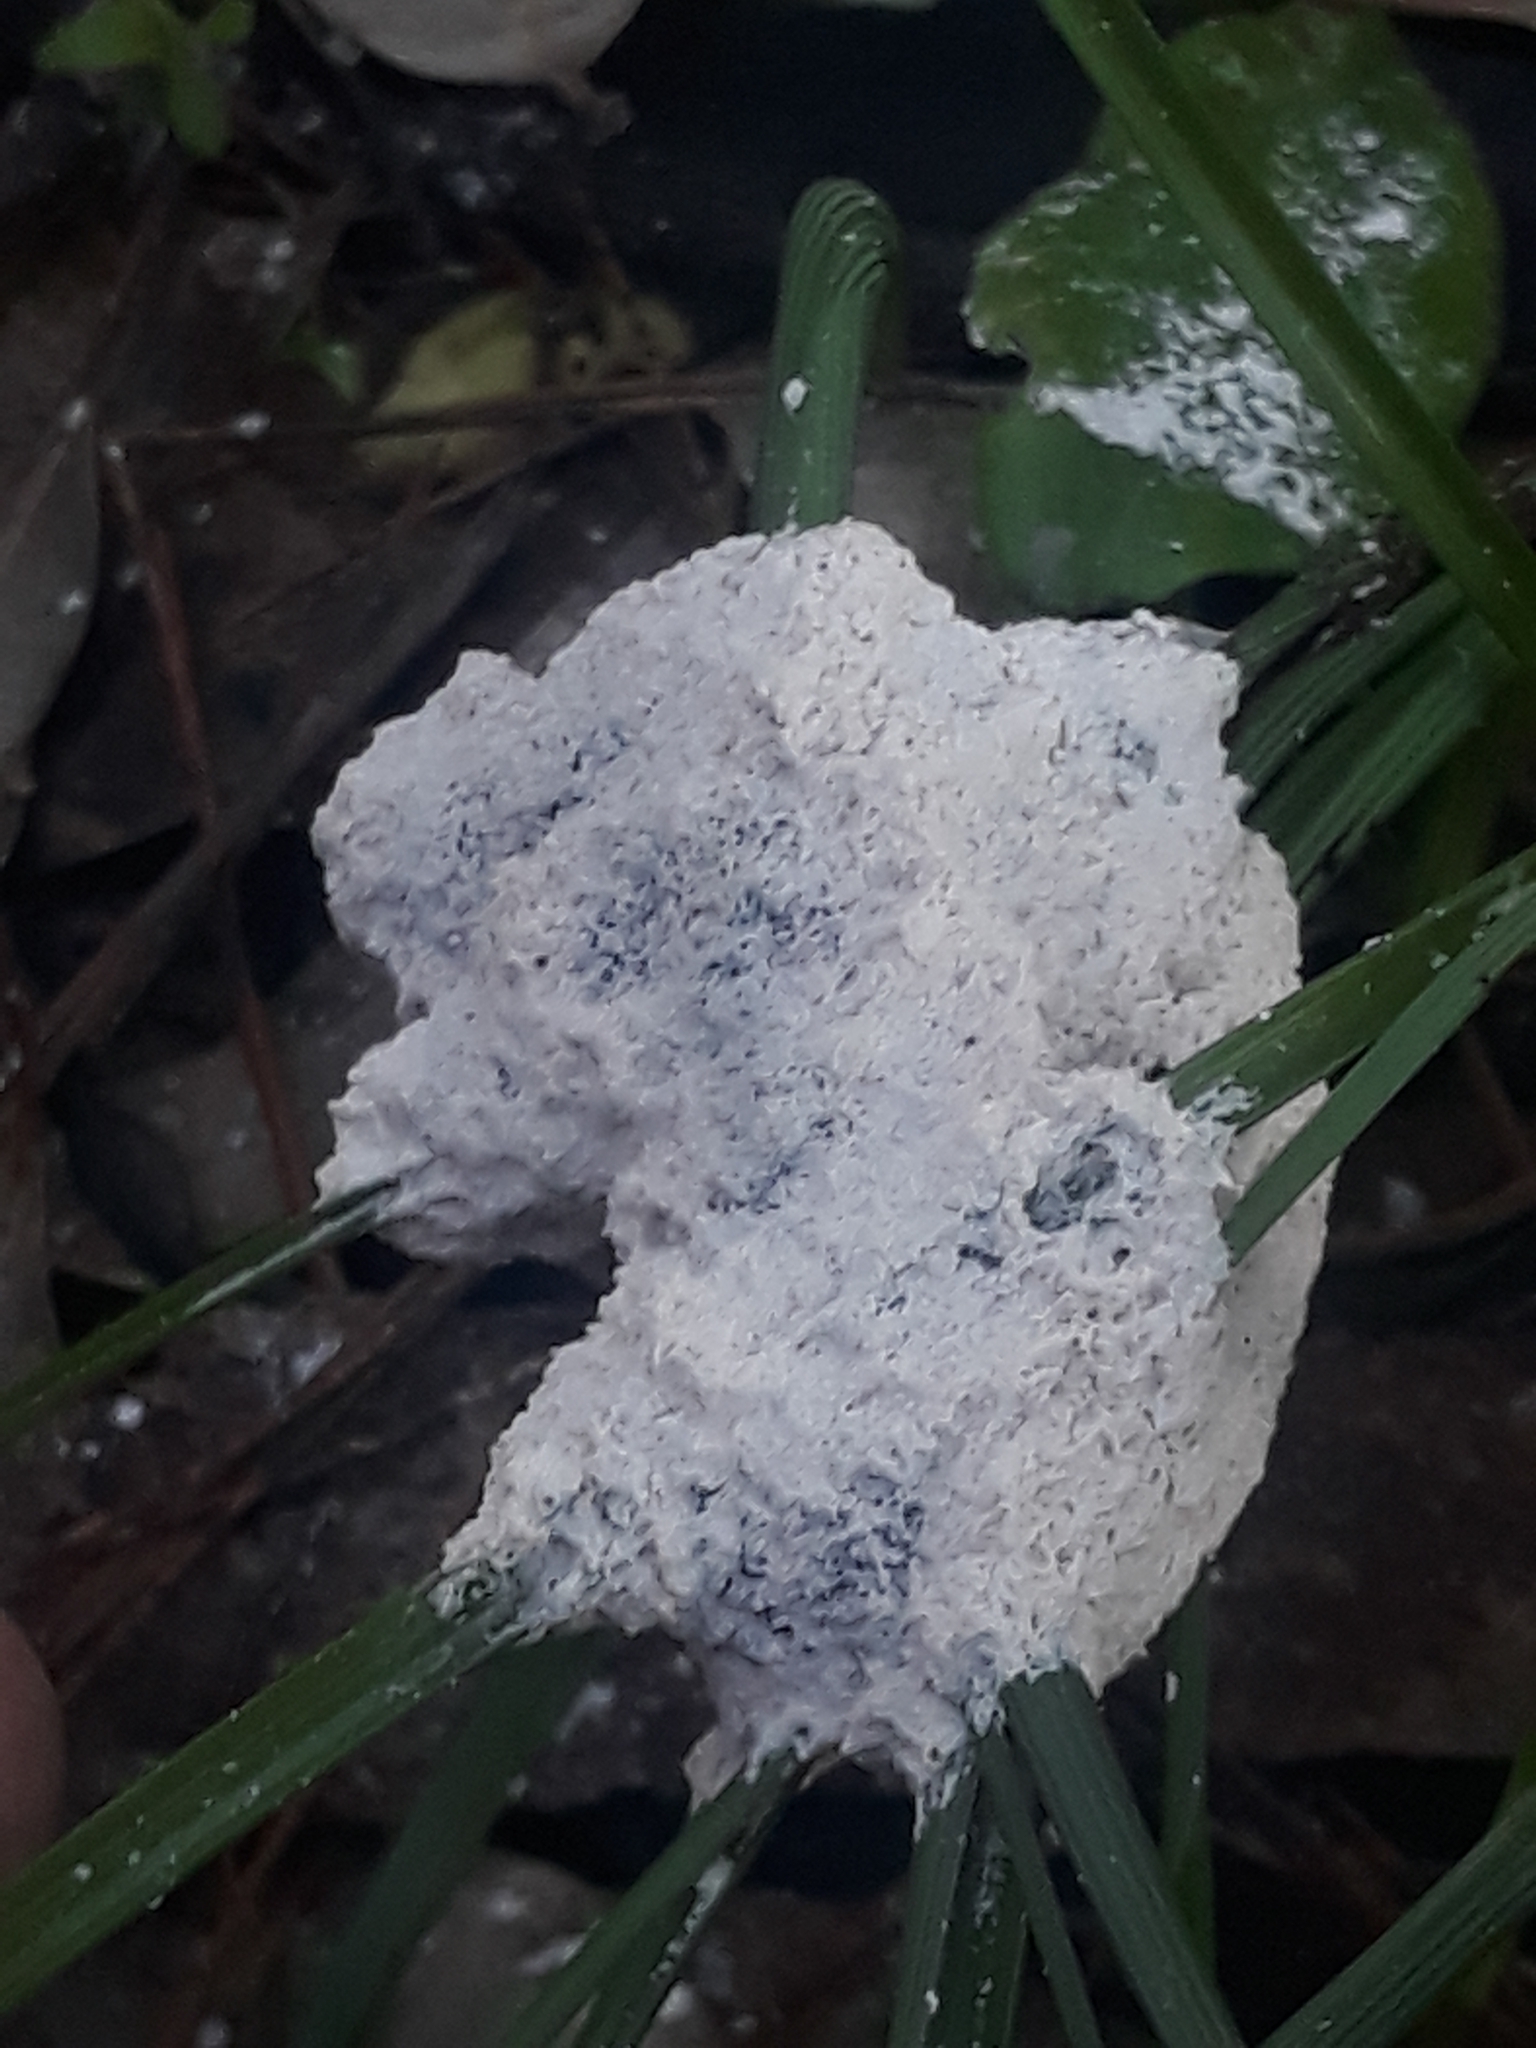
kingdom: Protozoa
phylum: Mycetozoa
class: Myxomycetes
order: Physarales
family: Physaraceae
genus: Didymium
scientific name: Didymium
